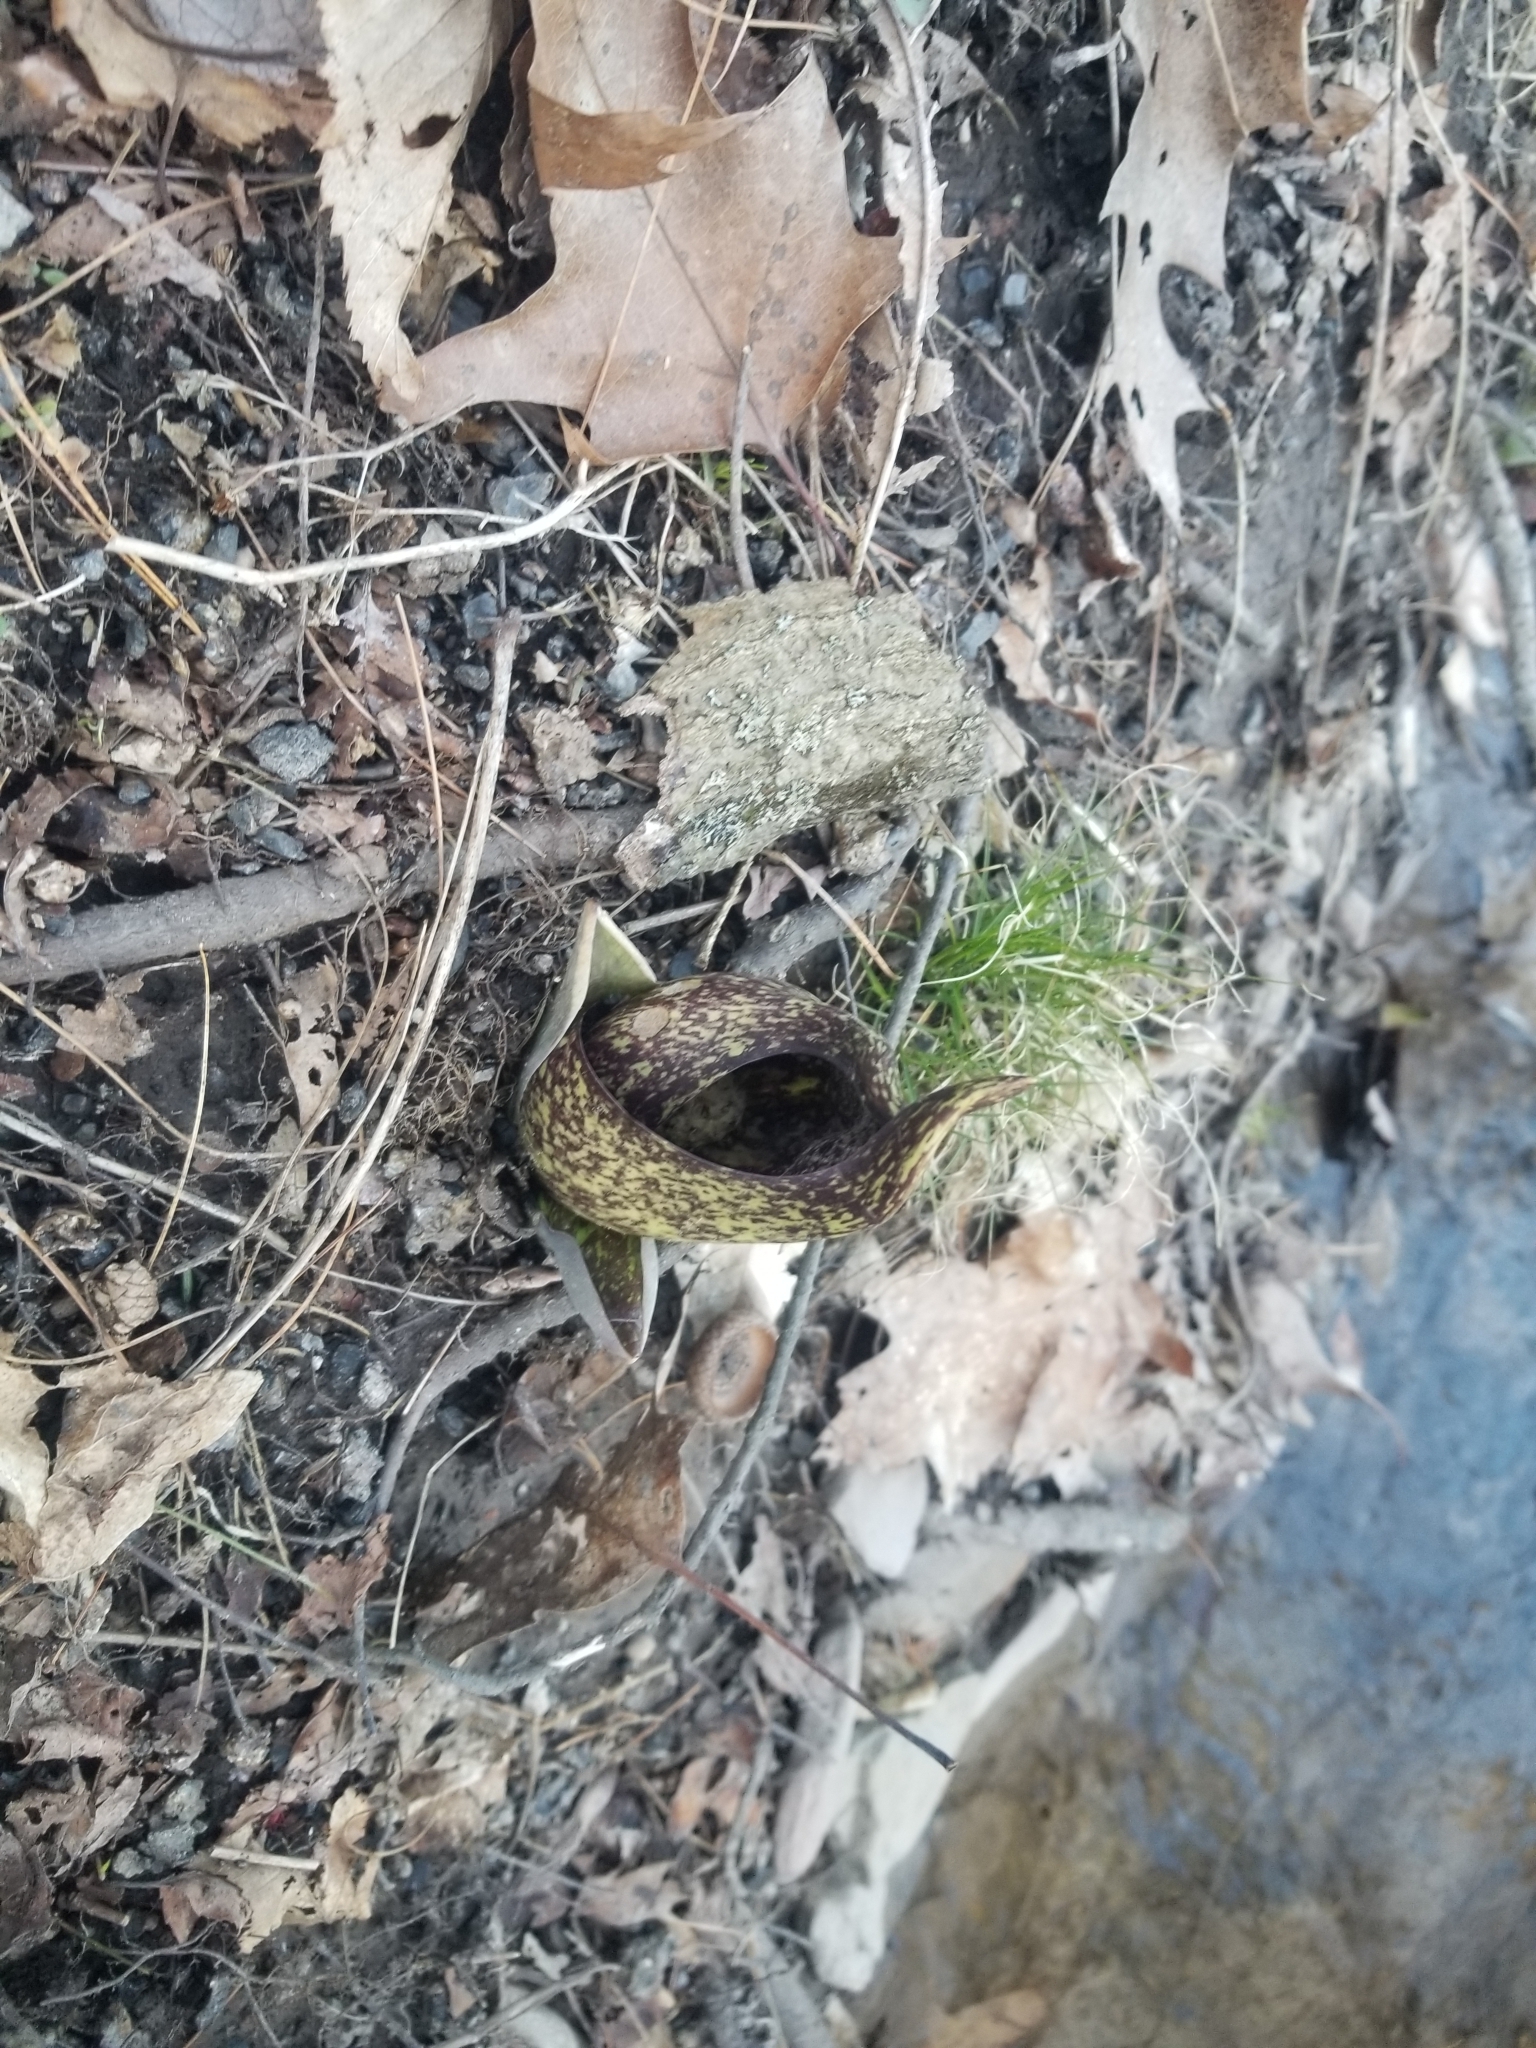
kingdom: Plantae
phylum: Tracheophyta
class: Liliopsida
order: Alismatales
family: Araceae
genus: Symplocarpus
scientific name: Symplocarpus foetidus
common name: Eastern skunk cabbage
